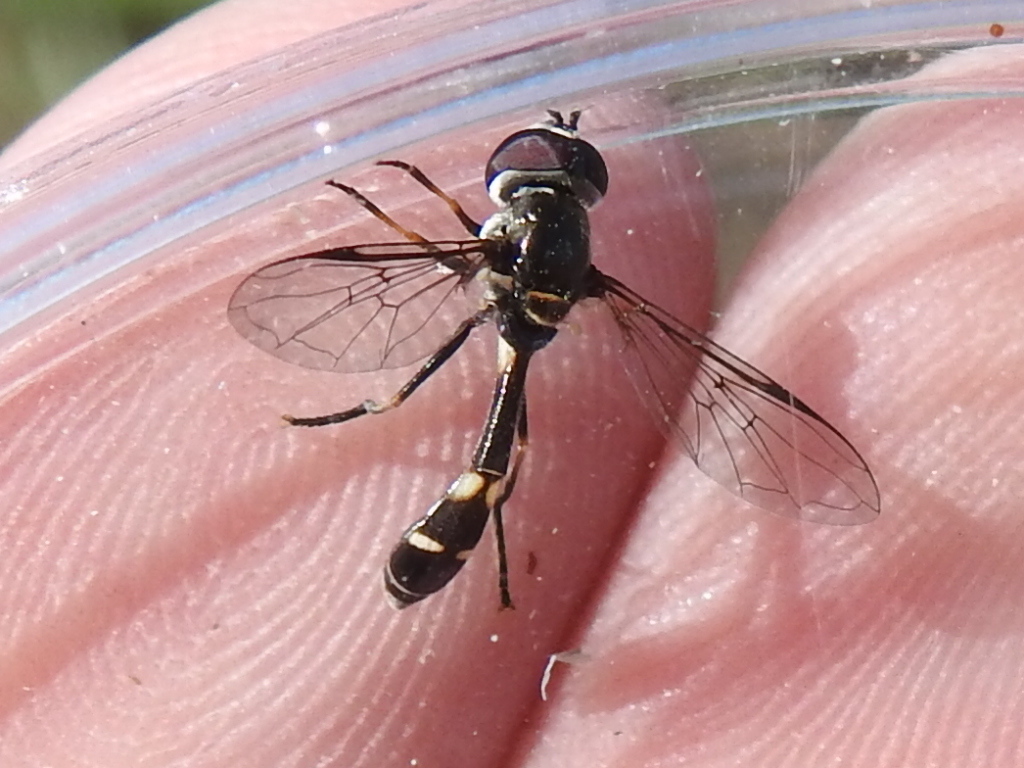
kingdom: Animalia
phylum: Arthropoda
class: Insecta
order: Diptera
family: Syrphidae
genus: Dioprosopa
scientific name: Dioprosopa clavatus
